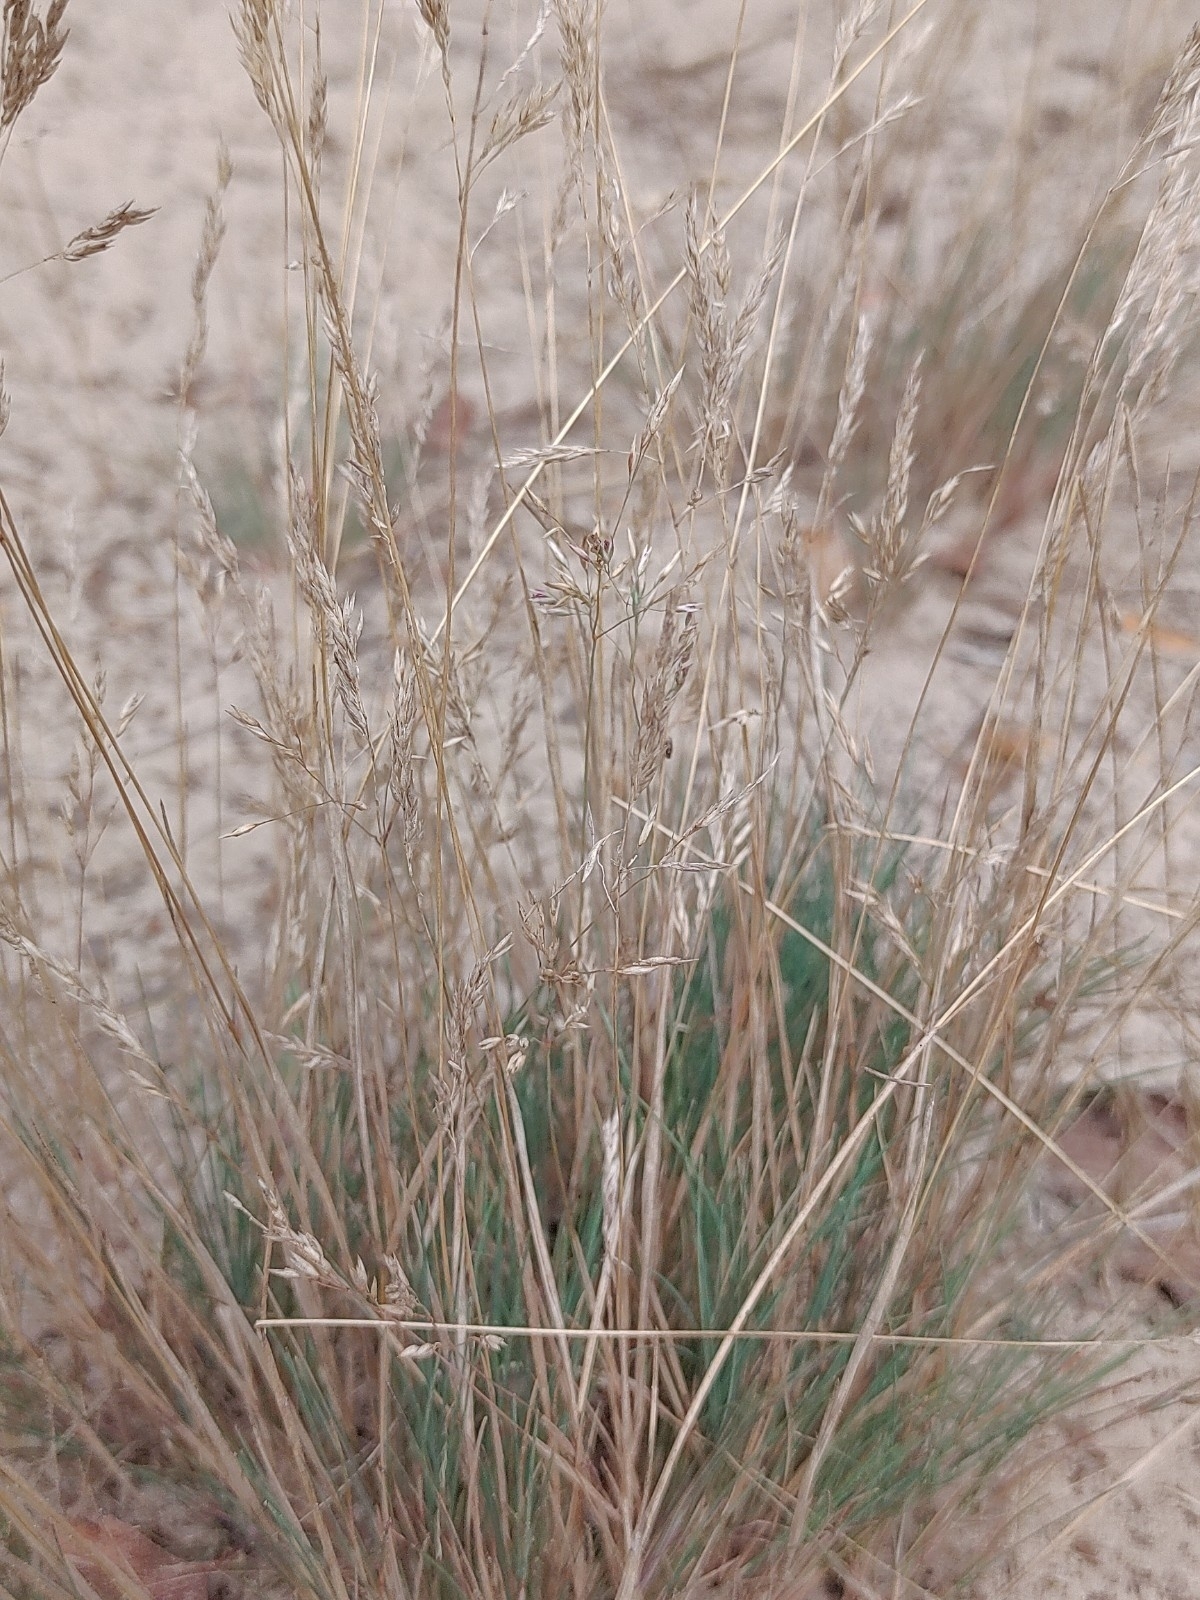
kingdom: Plantae
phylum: Tracheophyta
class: Liliopsida
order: Poales
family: Poaceae
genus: Corynephorus
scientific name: Corynephorus canescens
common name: Grey hair-grass
